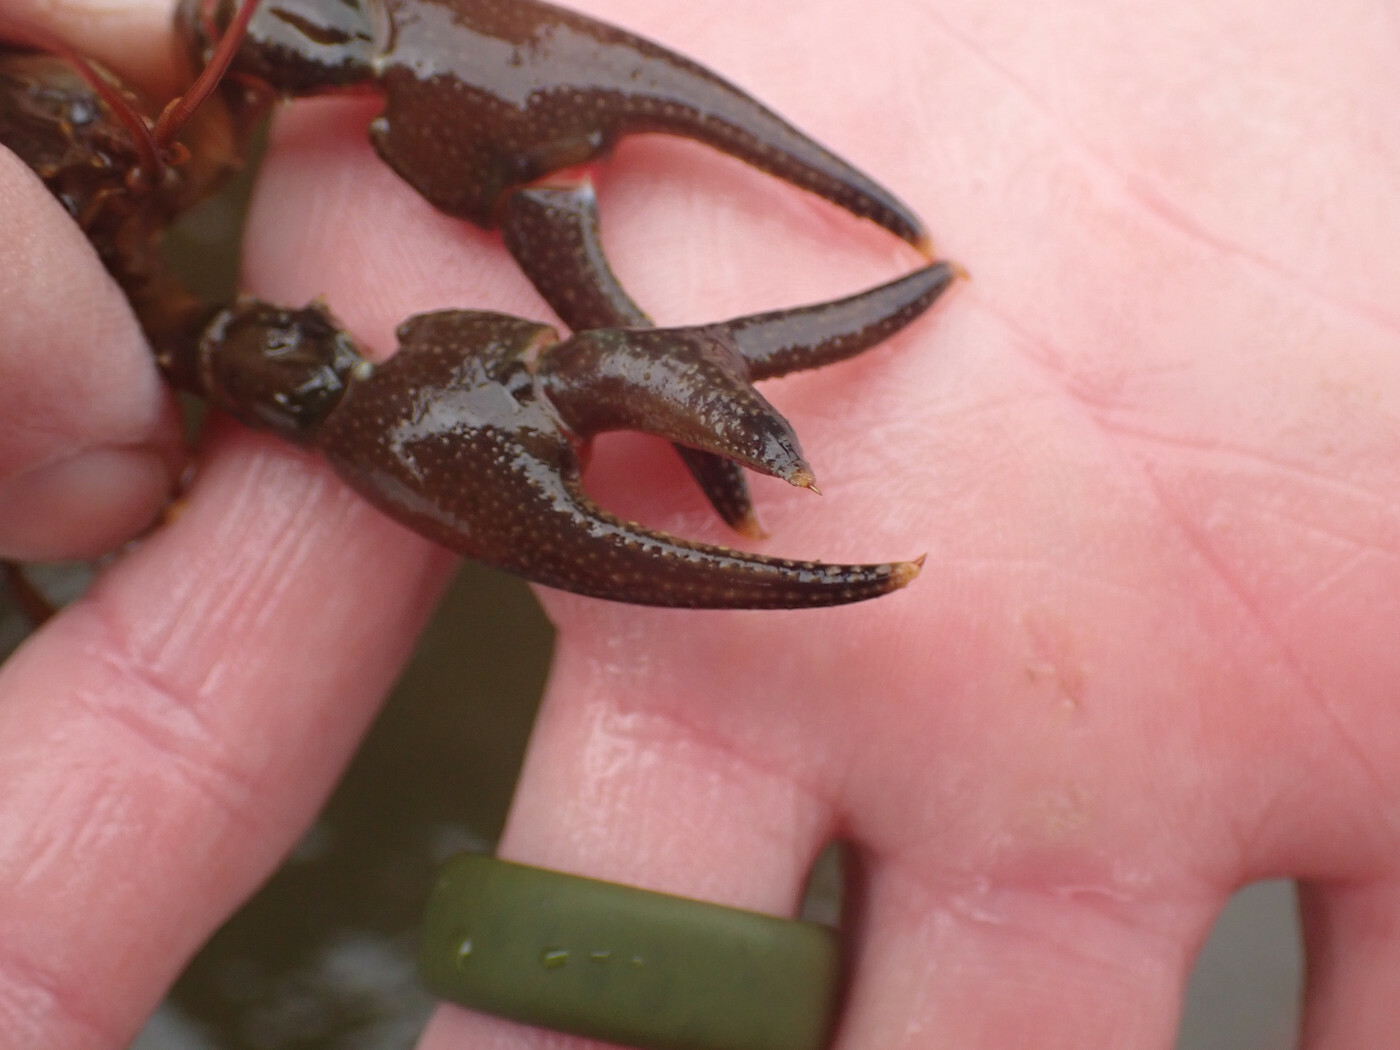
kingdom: Animalia
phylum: Arthropoda
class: Malacostraca
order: Decapoda
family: Cambaridae
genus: Faxonius
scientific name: Faxonius placidus
